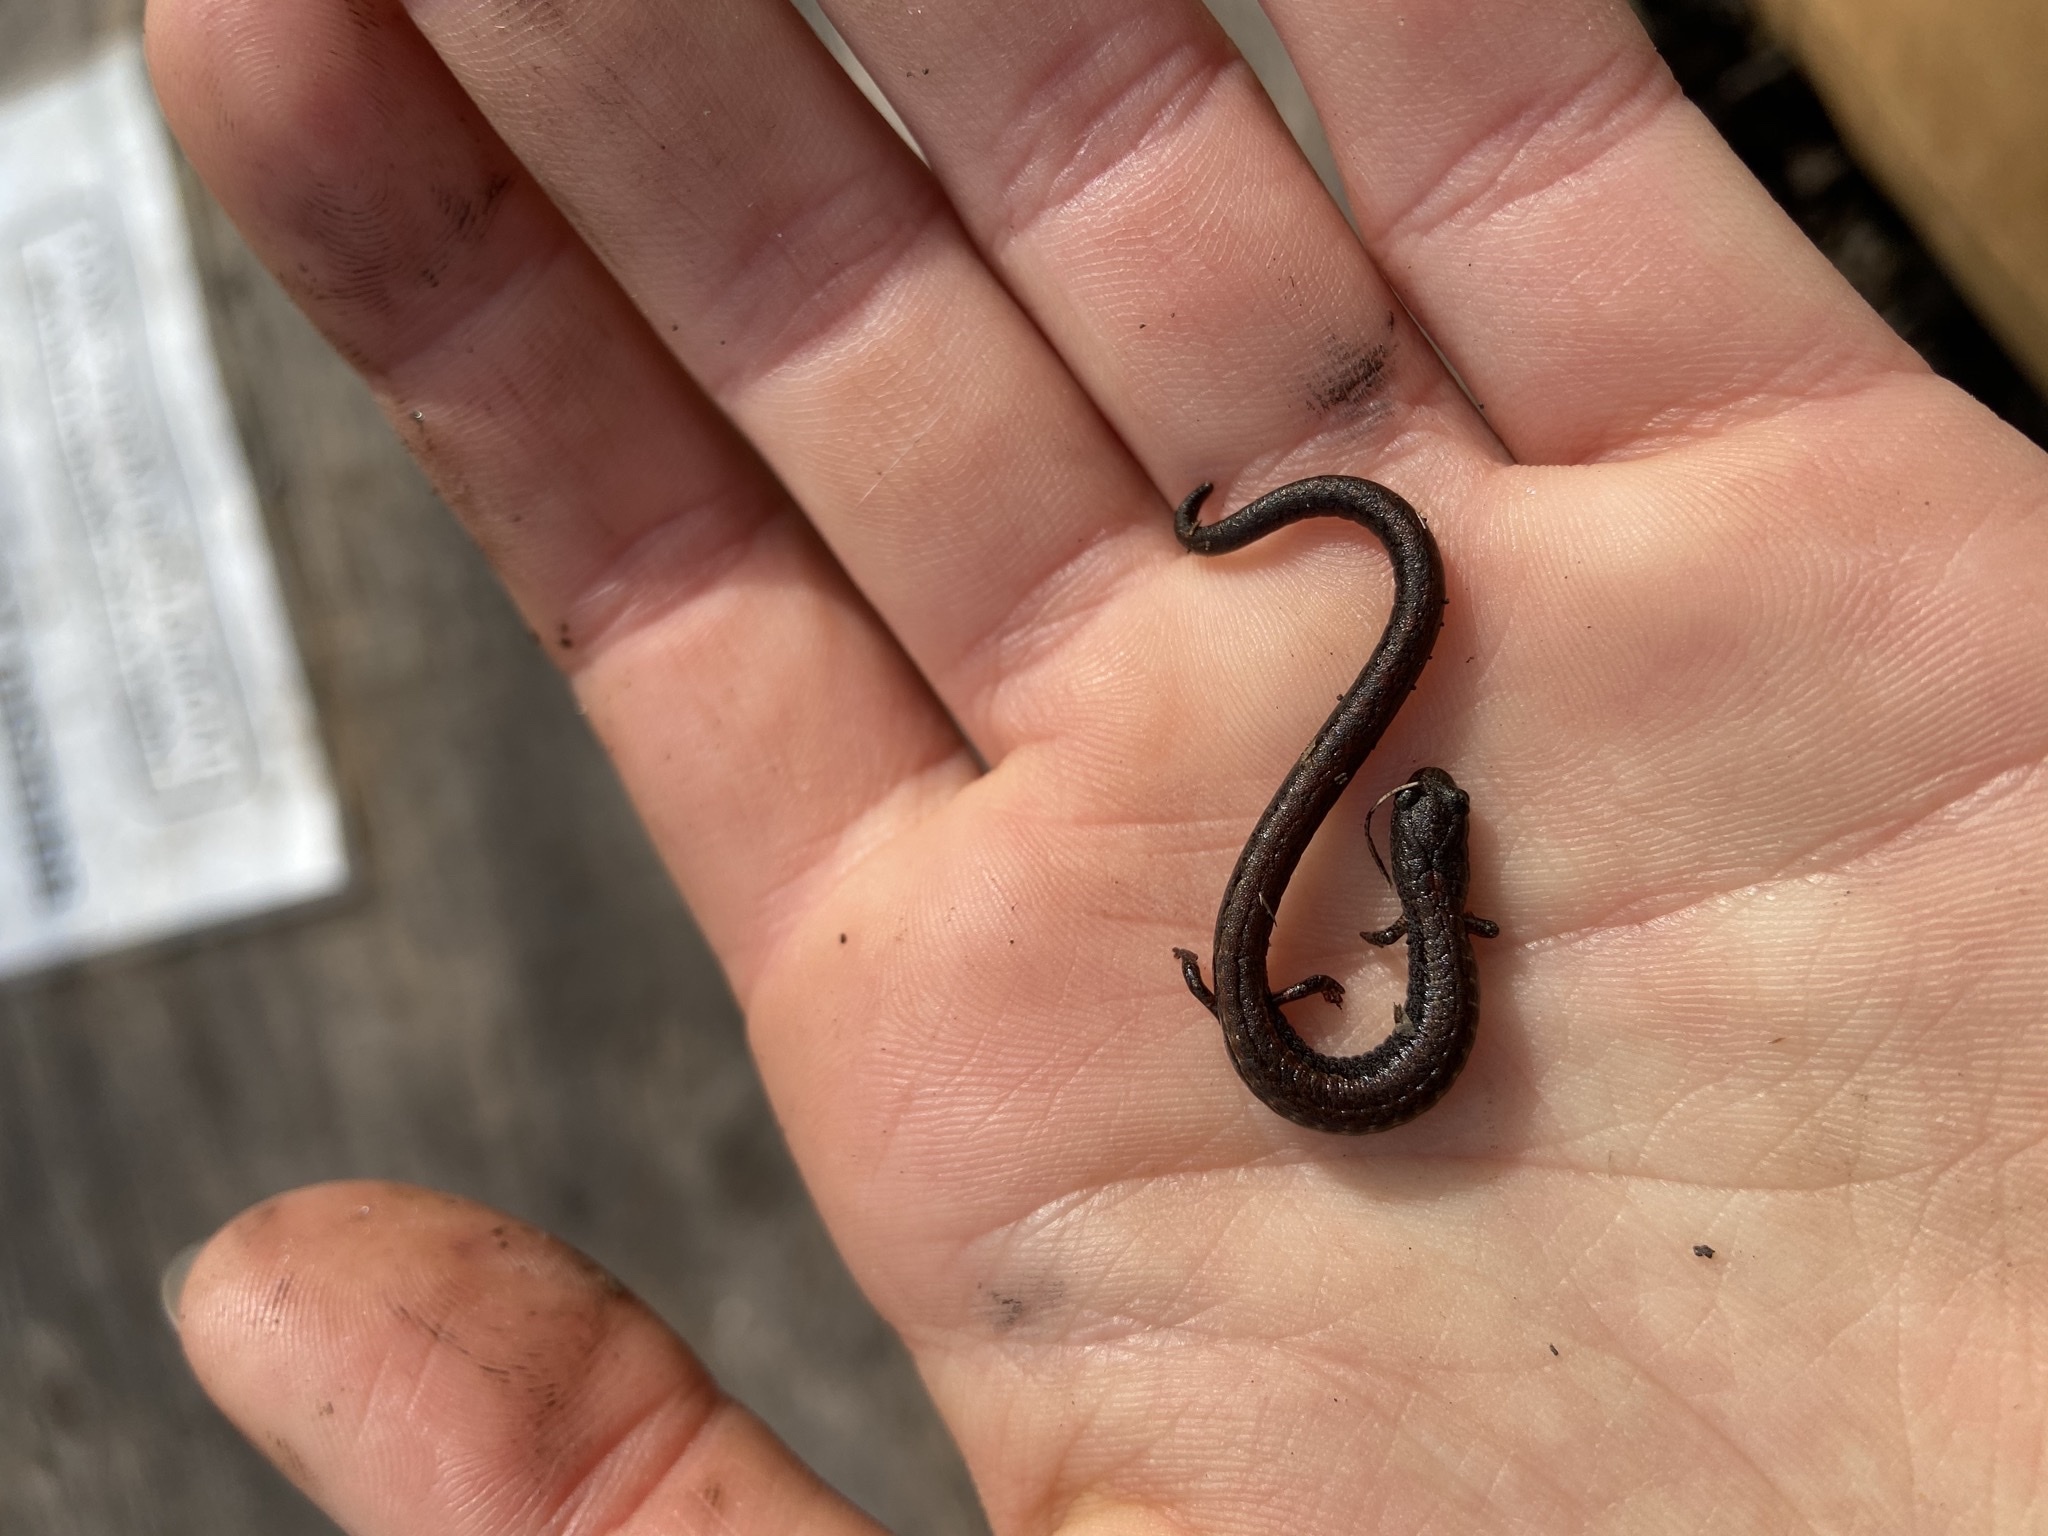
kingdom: Animalia
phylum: Chordata
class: Amphibia
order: Caudata
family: Plethodontidae
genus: Batrachoseps
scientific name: Batrachoseps attenuatus
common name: California slender salamander
